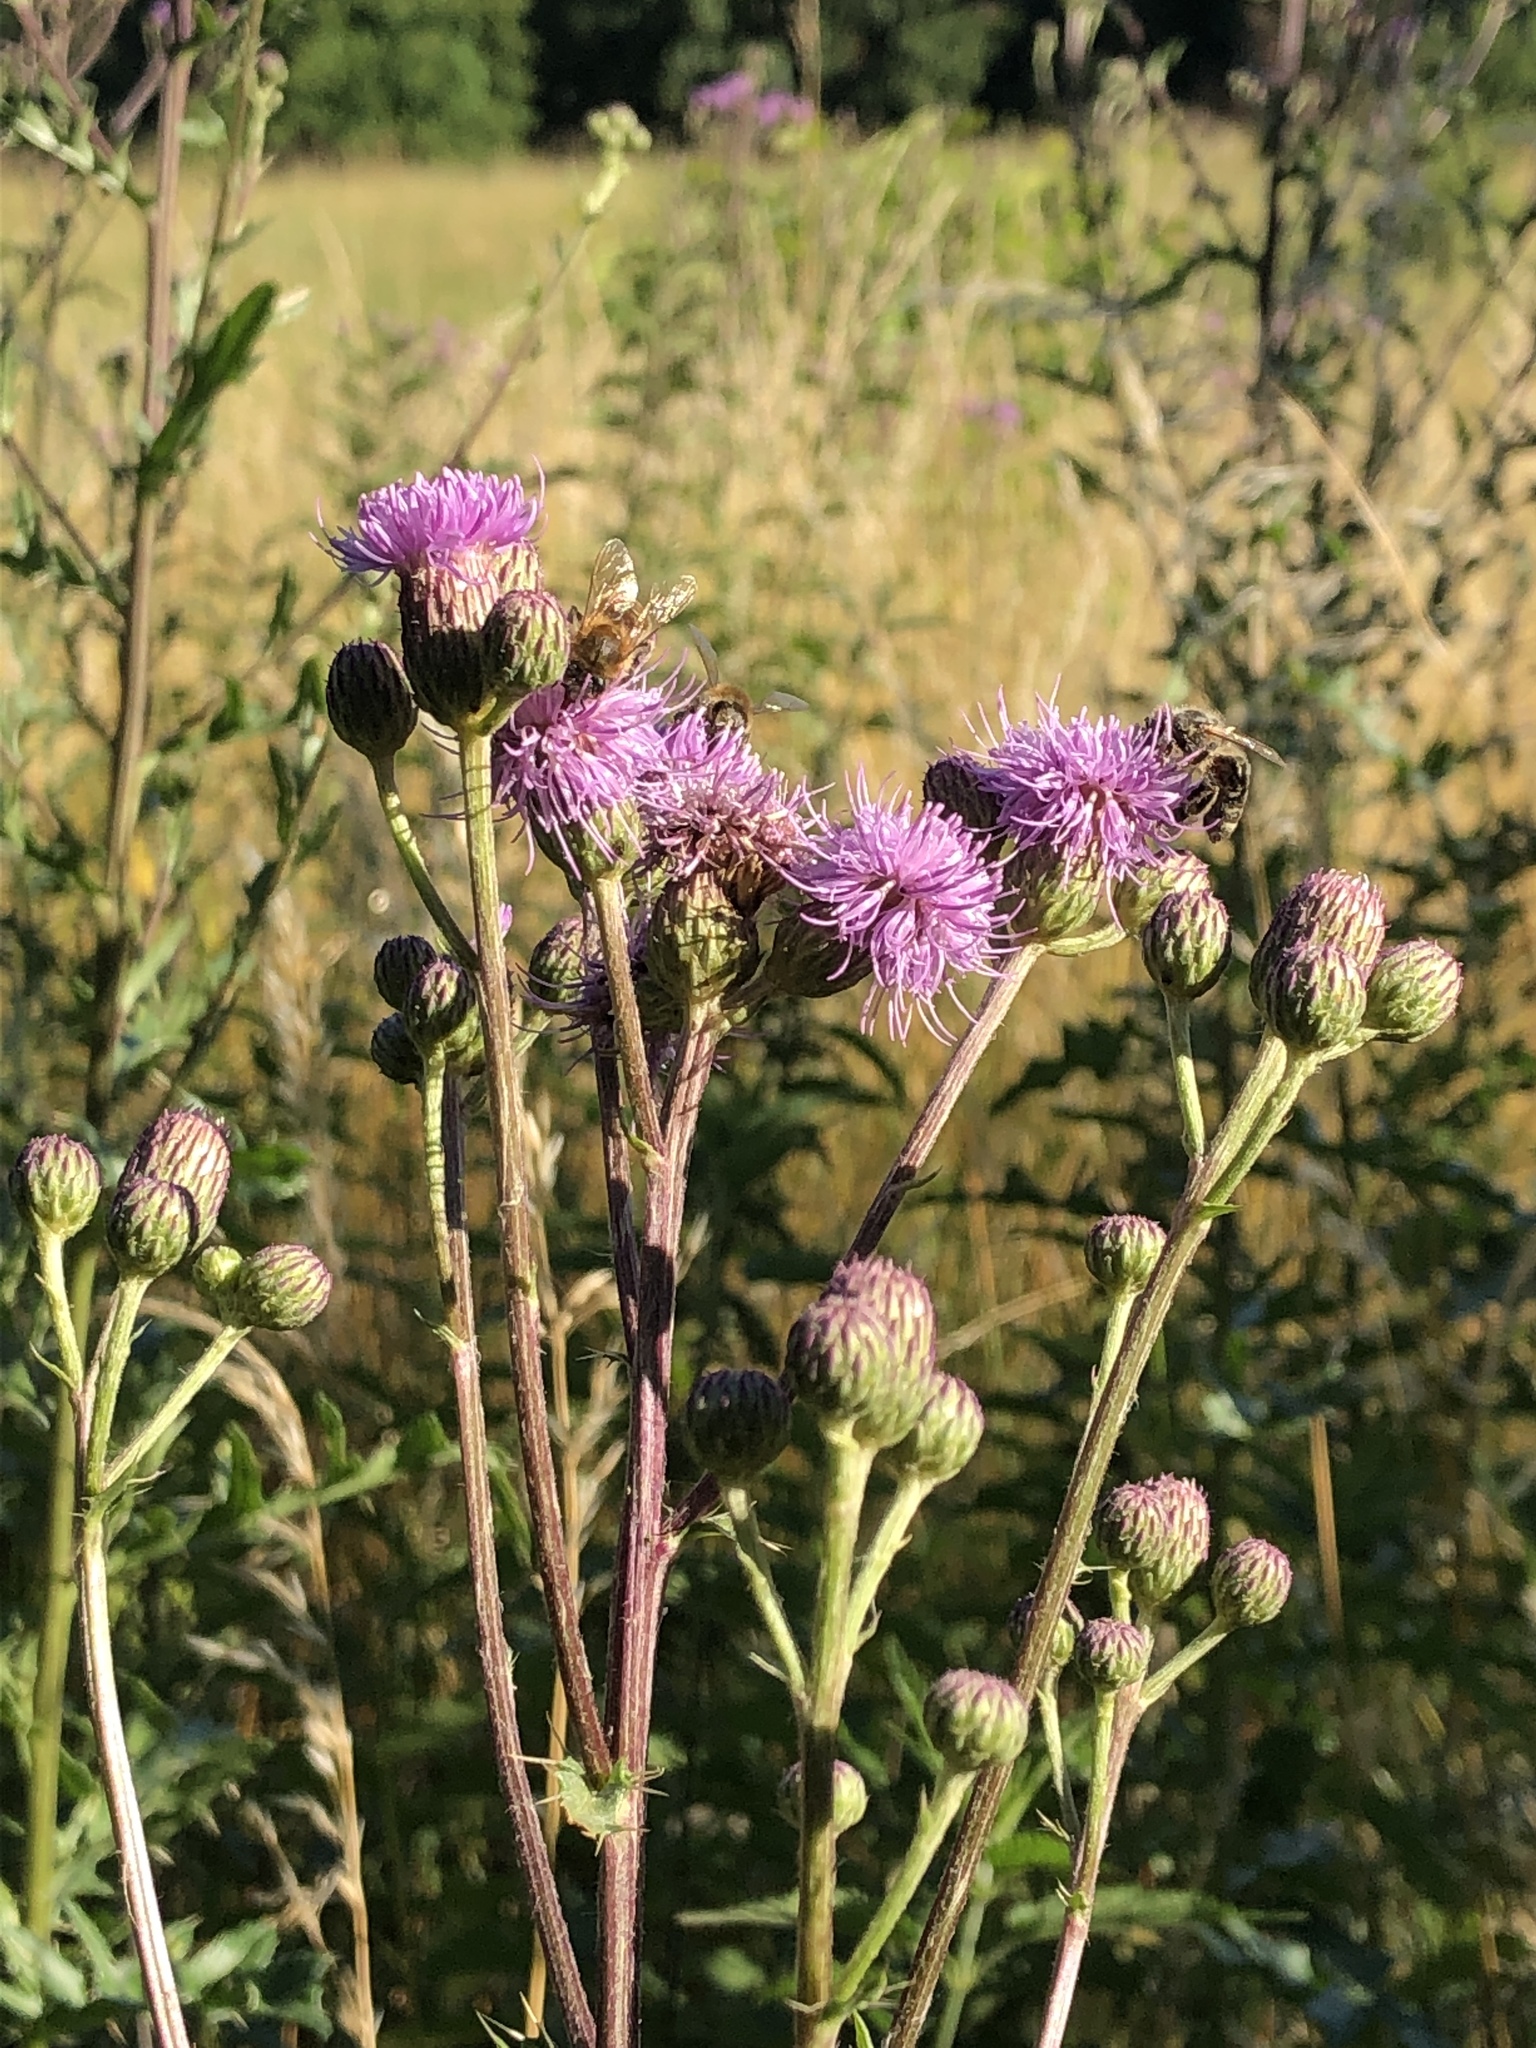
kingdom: Plantae
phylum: Tracheophyta
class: Magnoliopsida
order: Asterales
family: Asteraceae
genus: Cirsium
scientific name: Cirsium arvense
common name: Creeping thistle
